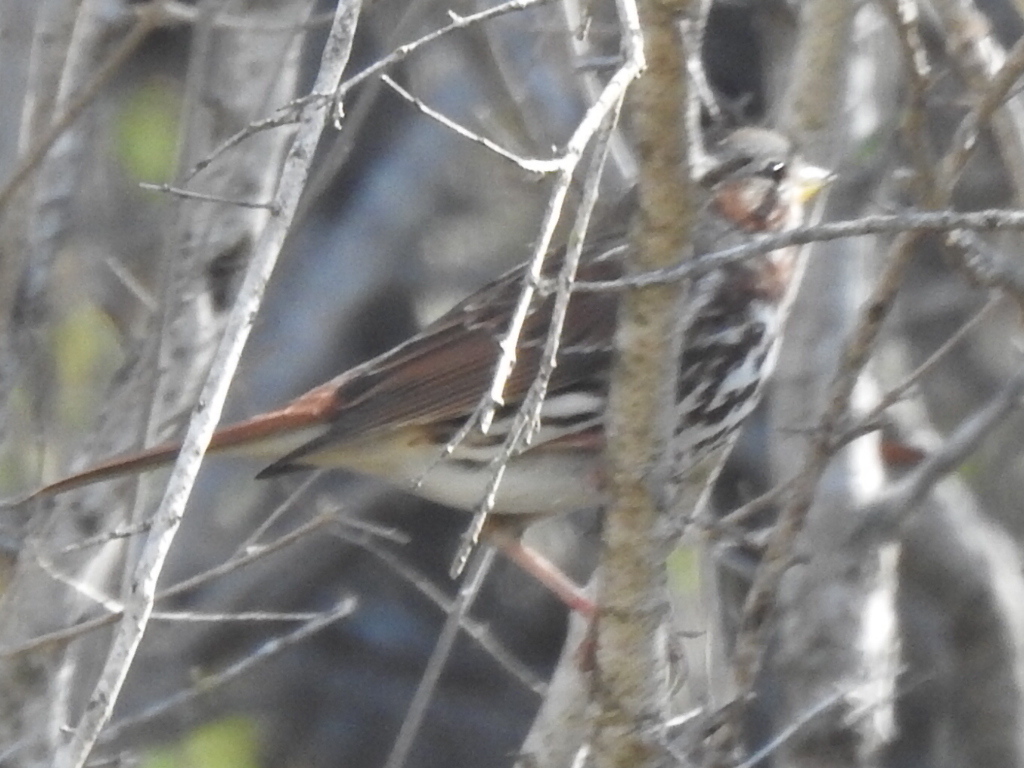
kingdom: Animalia
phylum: Chordata
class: Aves
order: Passeriformes
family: Passerellidae
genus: Passerella
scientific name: Passerella iliaca
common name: Fox sparrow
